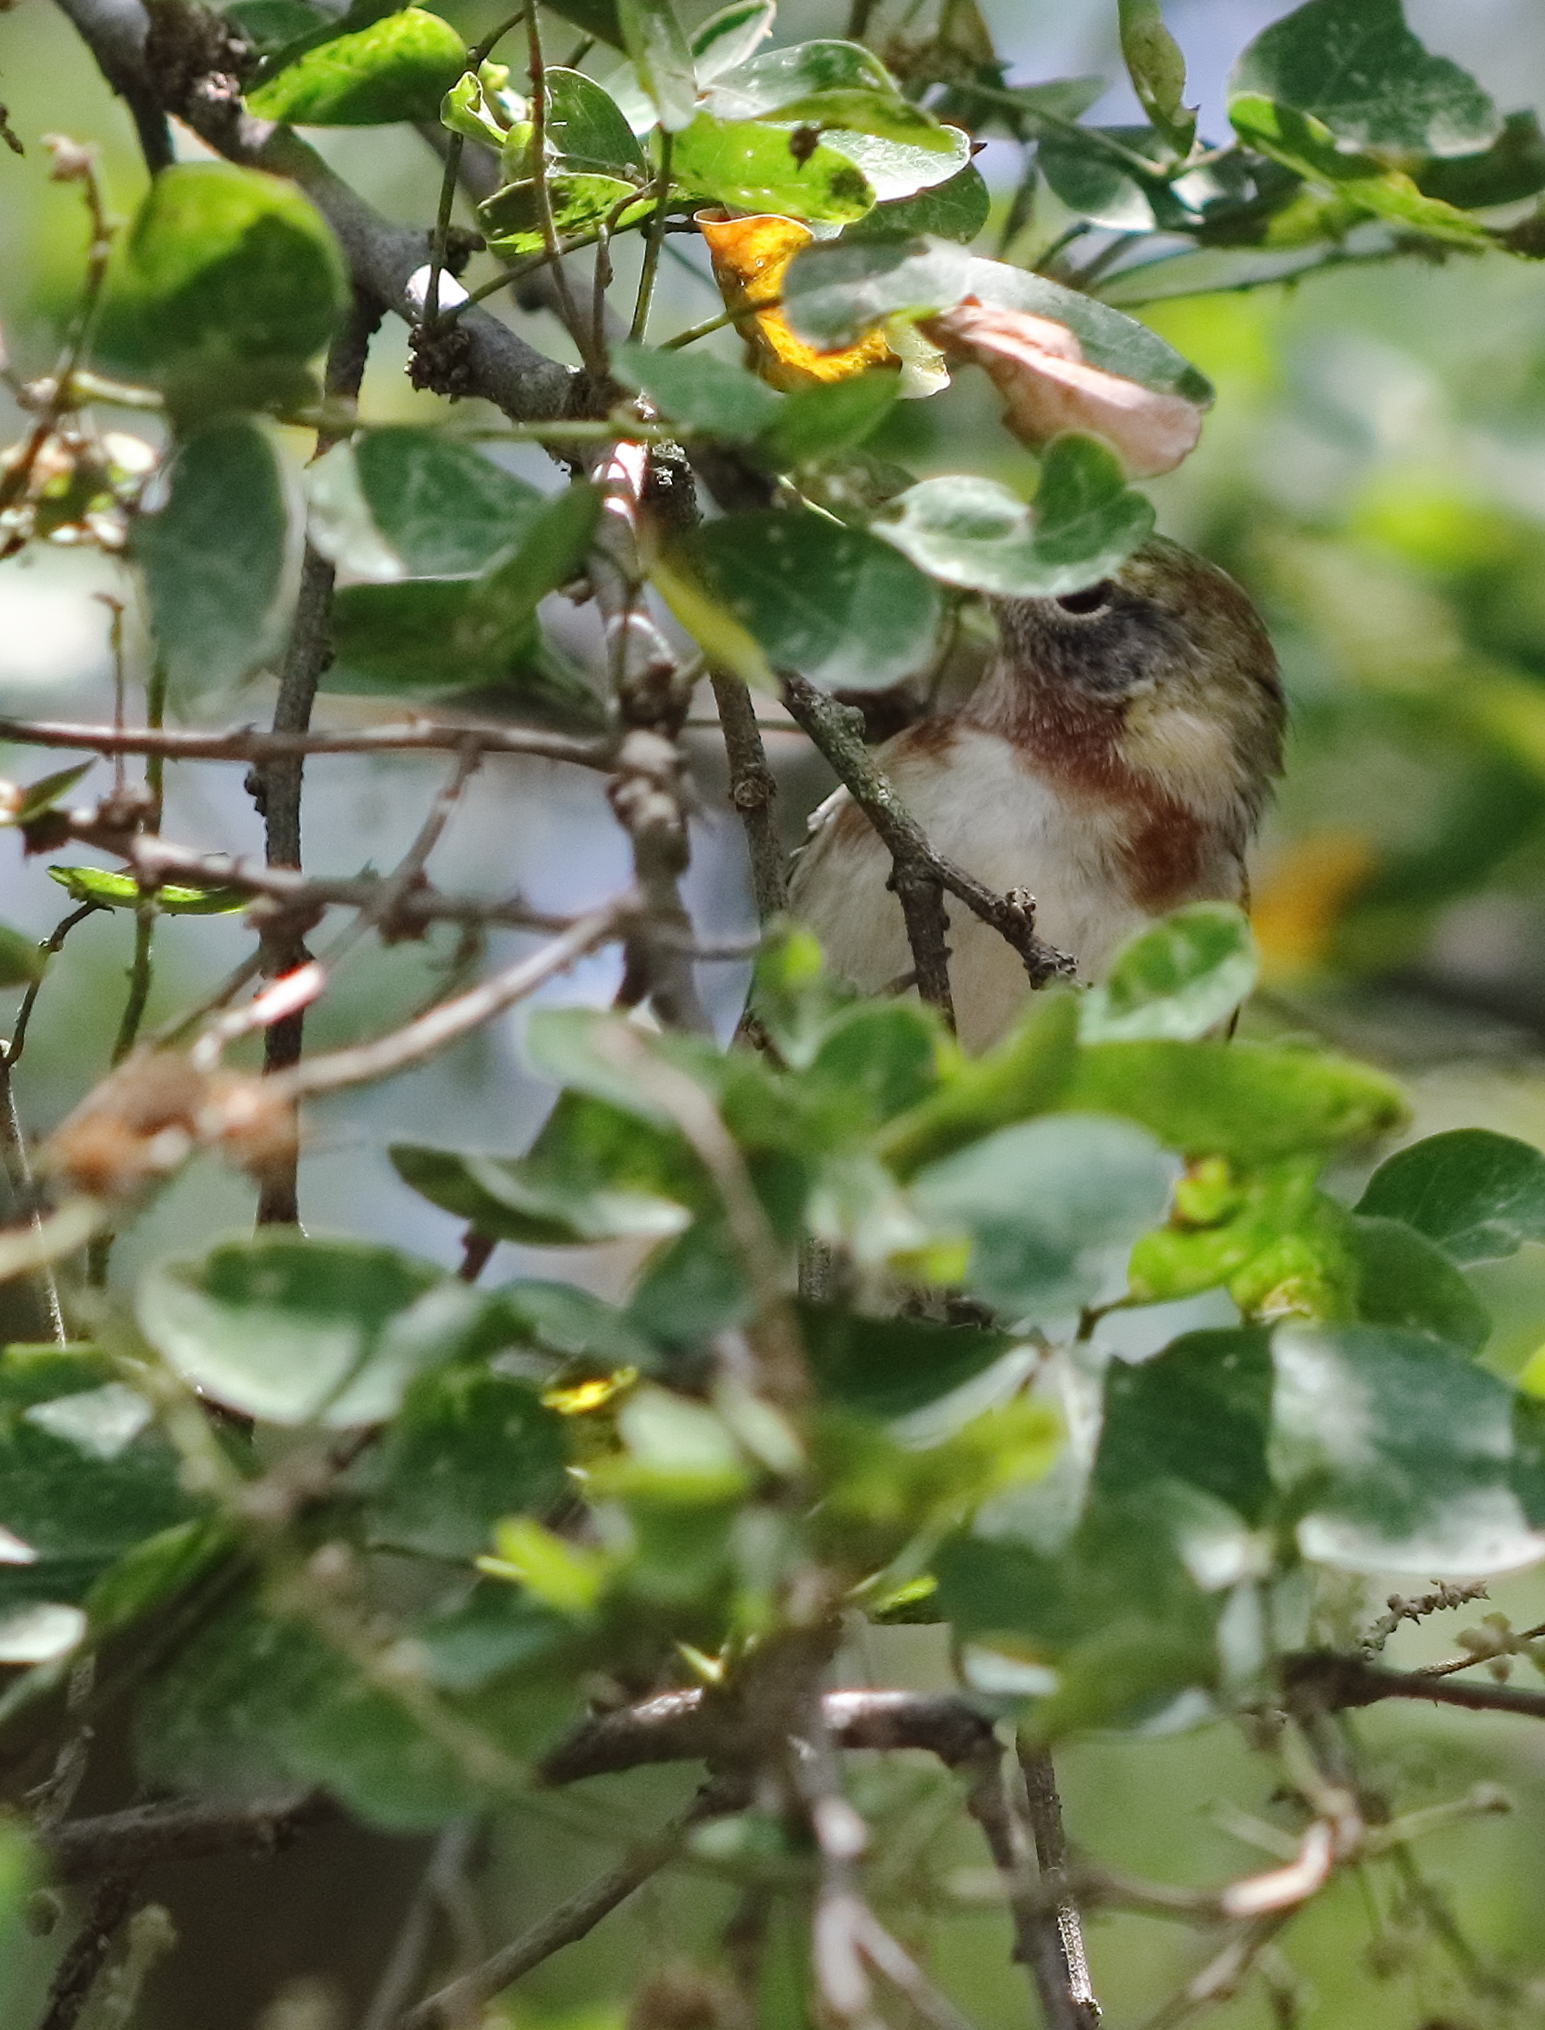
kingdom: Animalia
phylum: Chordata
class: Aves
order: Passeriformes
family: Parulidae
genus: Setophaga
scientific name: Setophaga castanea
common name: Bay-breasted warbler
